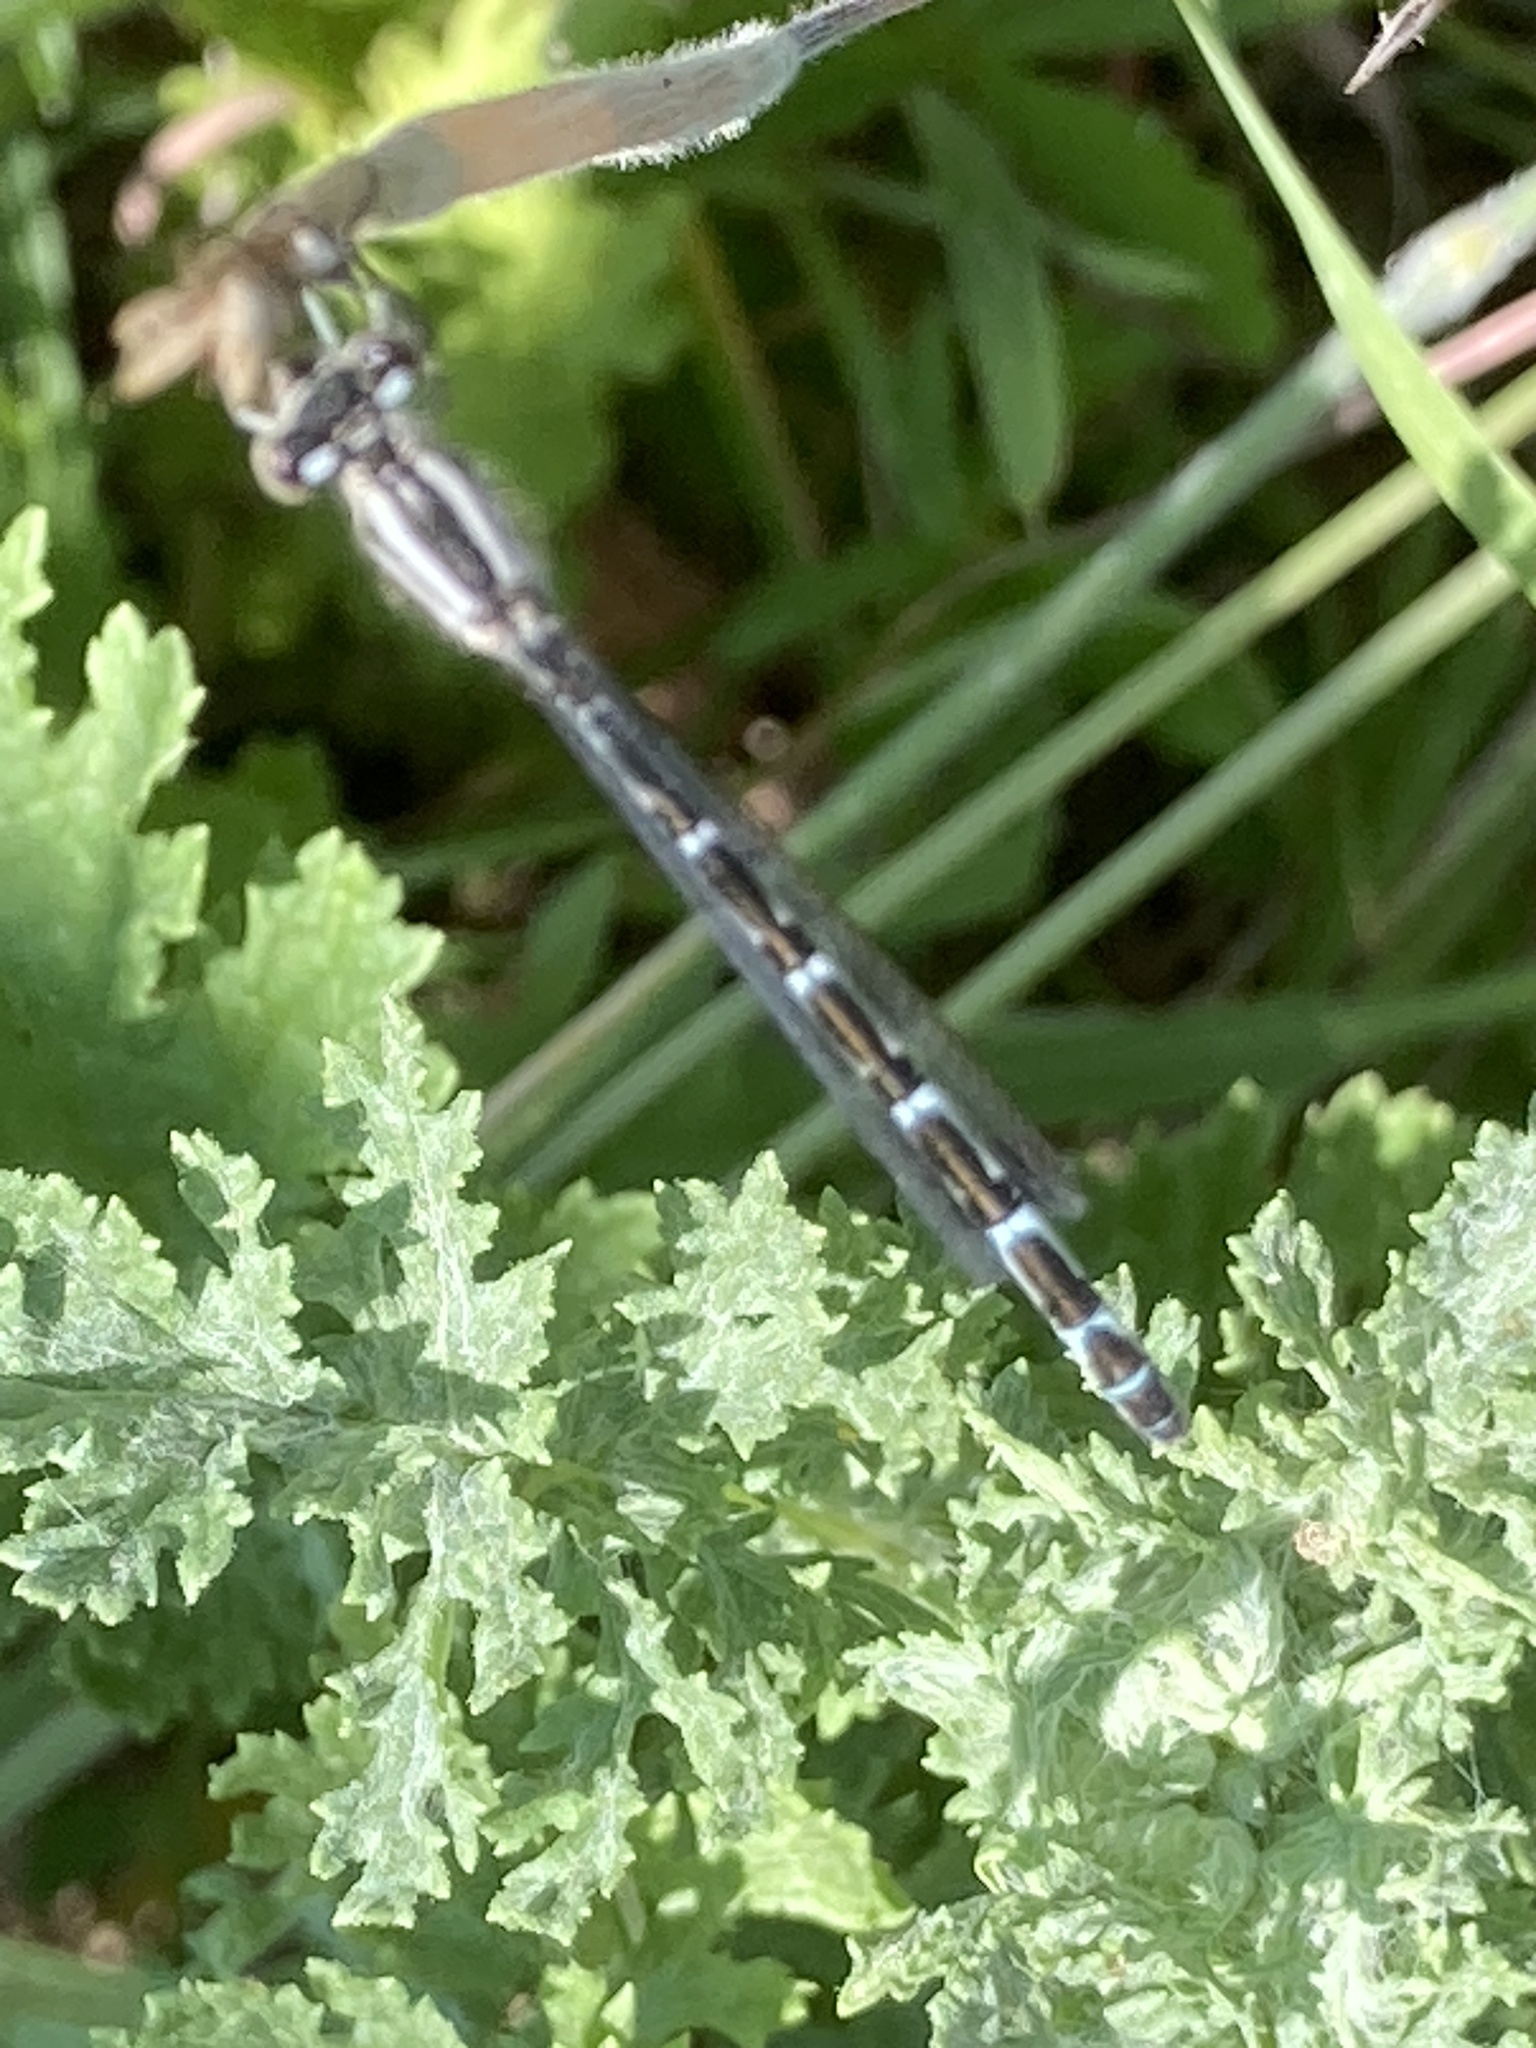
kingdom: Animalia
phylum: Arthropoda
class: Insecta
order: Odonata
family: Coenagrionidae
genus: Enallagma
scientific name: Enallagma cyathigerum
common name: Common blue damselfly
